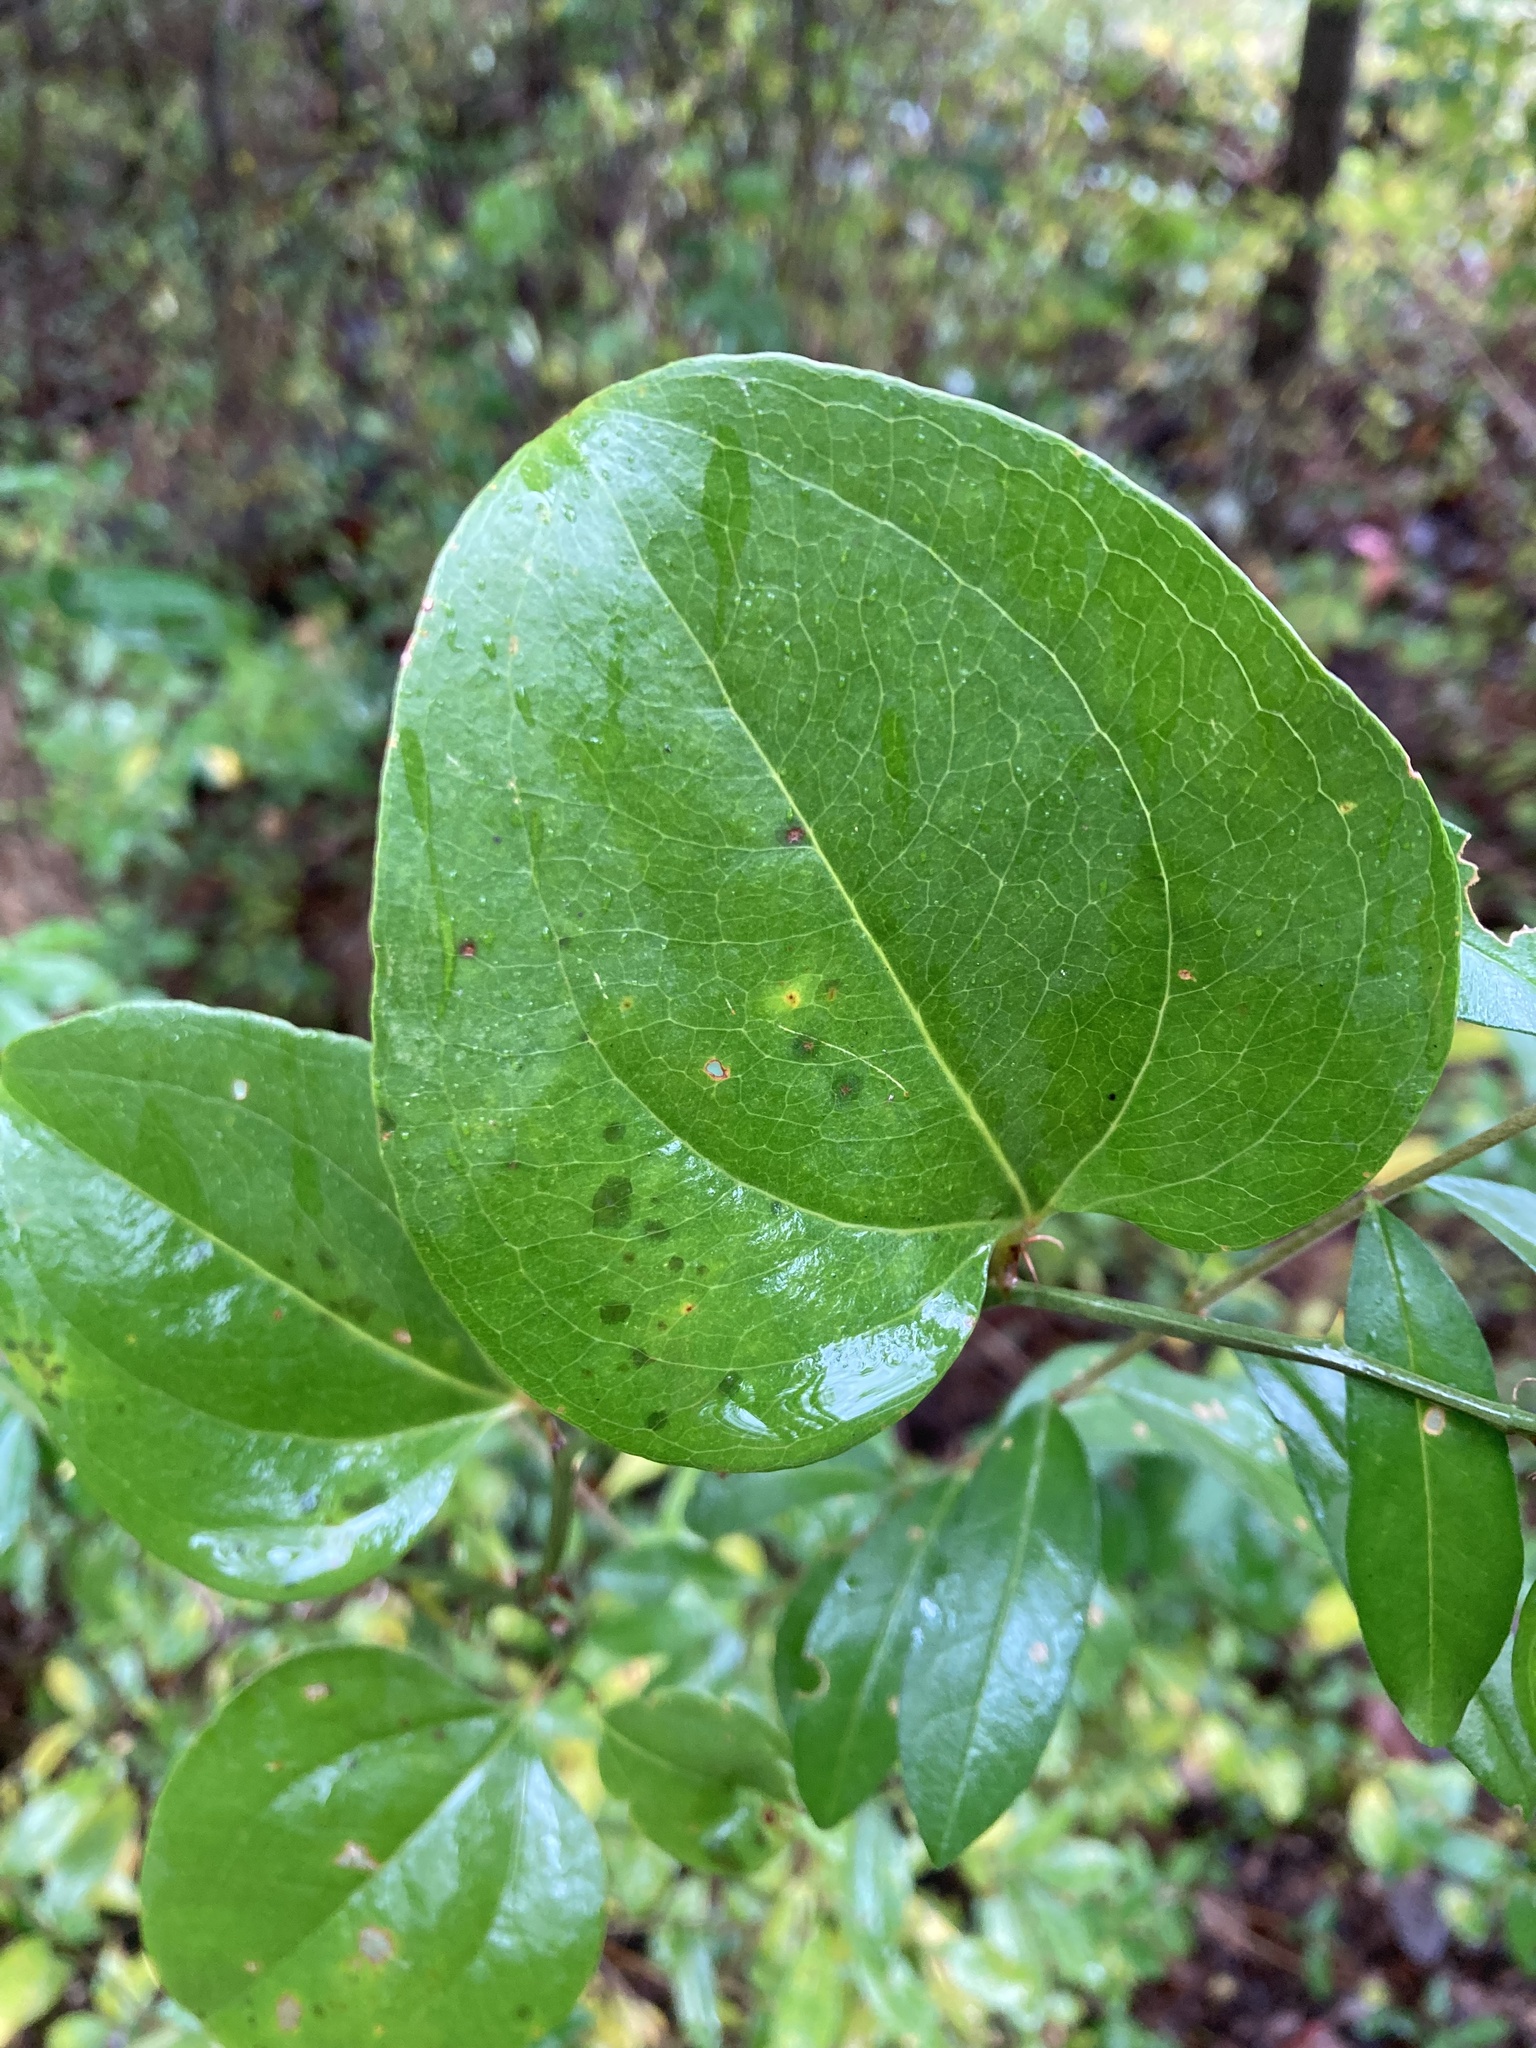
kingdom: Plantae
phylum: Tracheophyta
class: Liliopsida
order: Liliales
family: Smilacaceae
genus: Smilax
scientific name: Smilax rotundifolia
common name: Bullbriar
